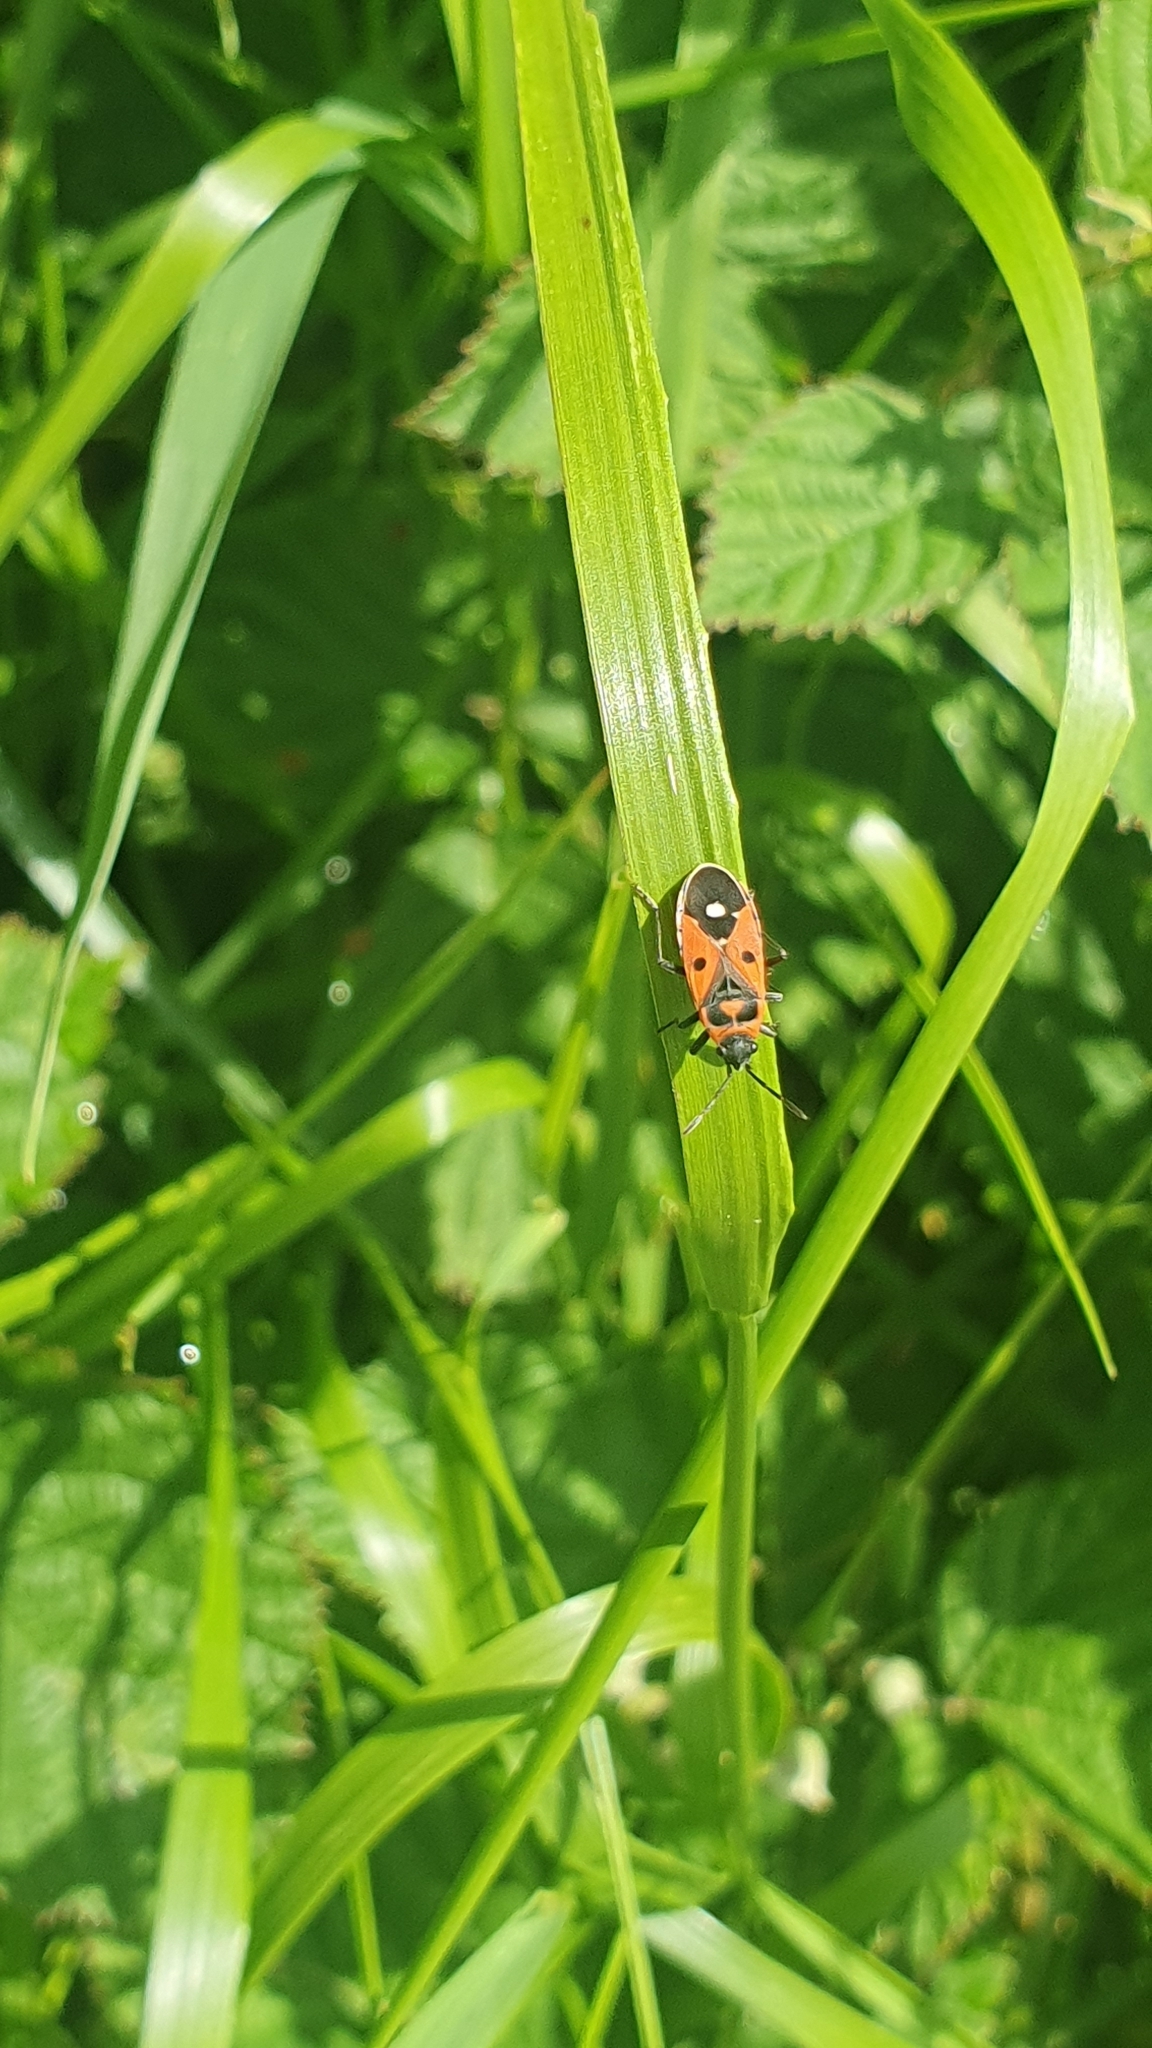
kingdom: Animalia
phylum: Arthropoda
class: Insecta
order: Hemiptera
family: Lygaeidae
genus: Melanocoryphus
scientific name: Melanocoryphus albomaculatus
